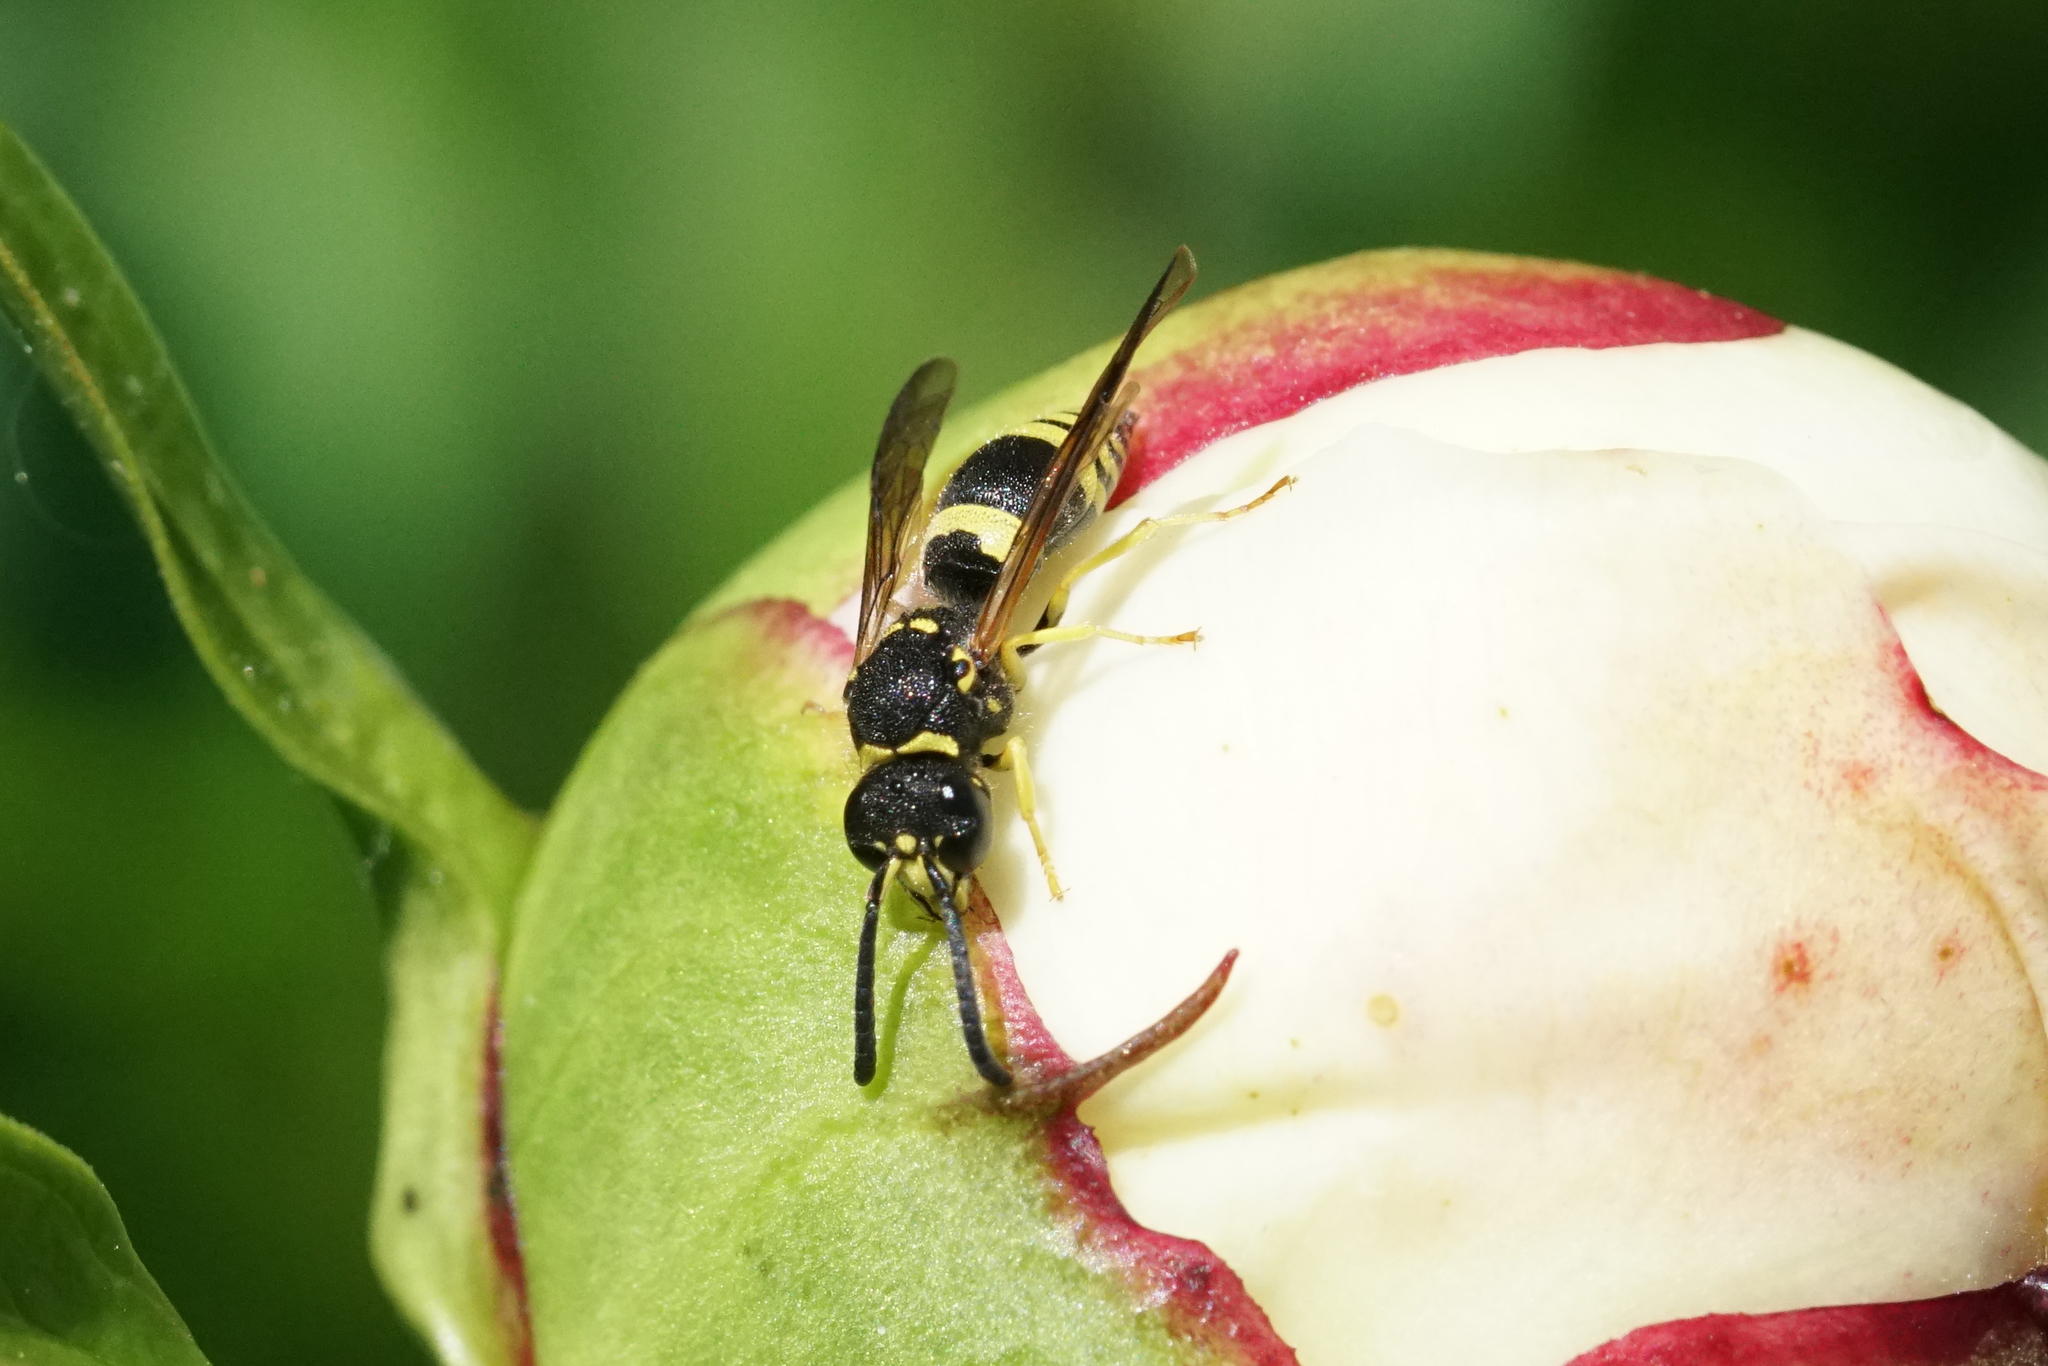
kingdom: Animalia
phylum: Arthropoda
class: Insecta
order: Hymenoptera
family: Vespidae
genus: Ancistrocerus
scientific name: Ancistrocerus gazella
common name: European tube wasp
